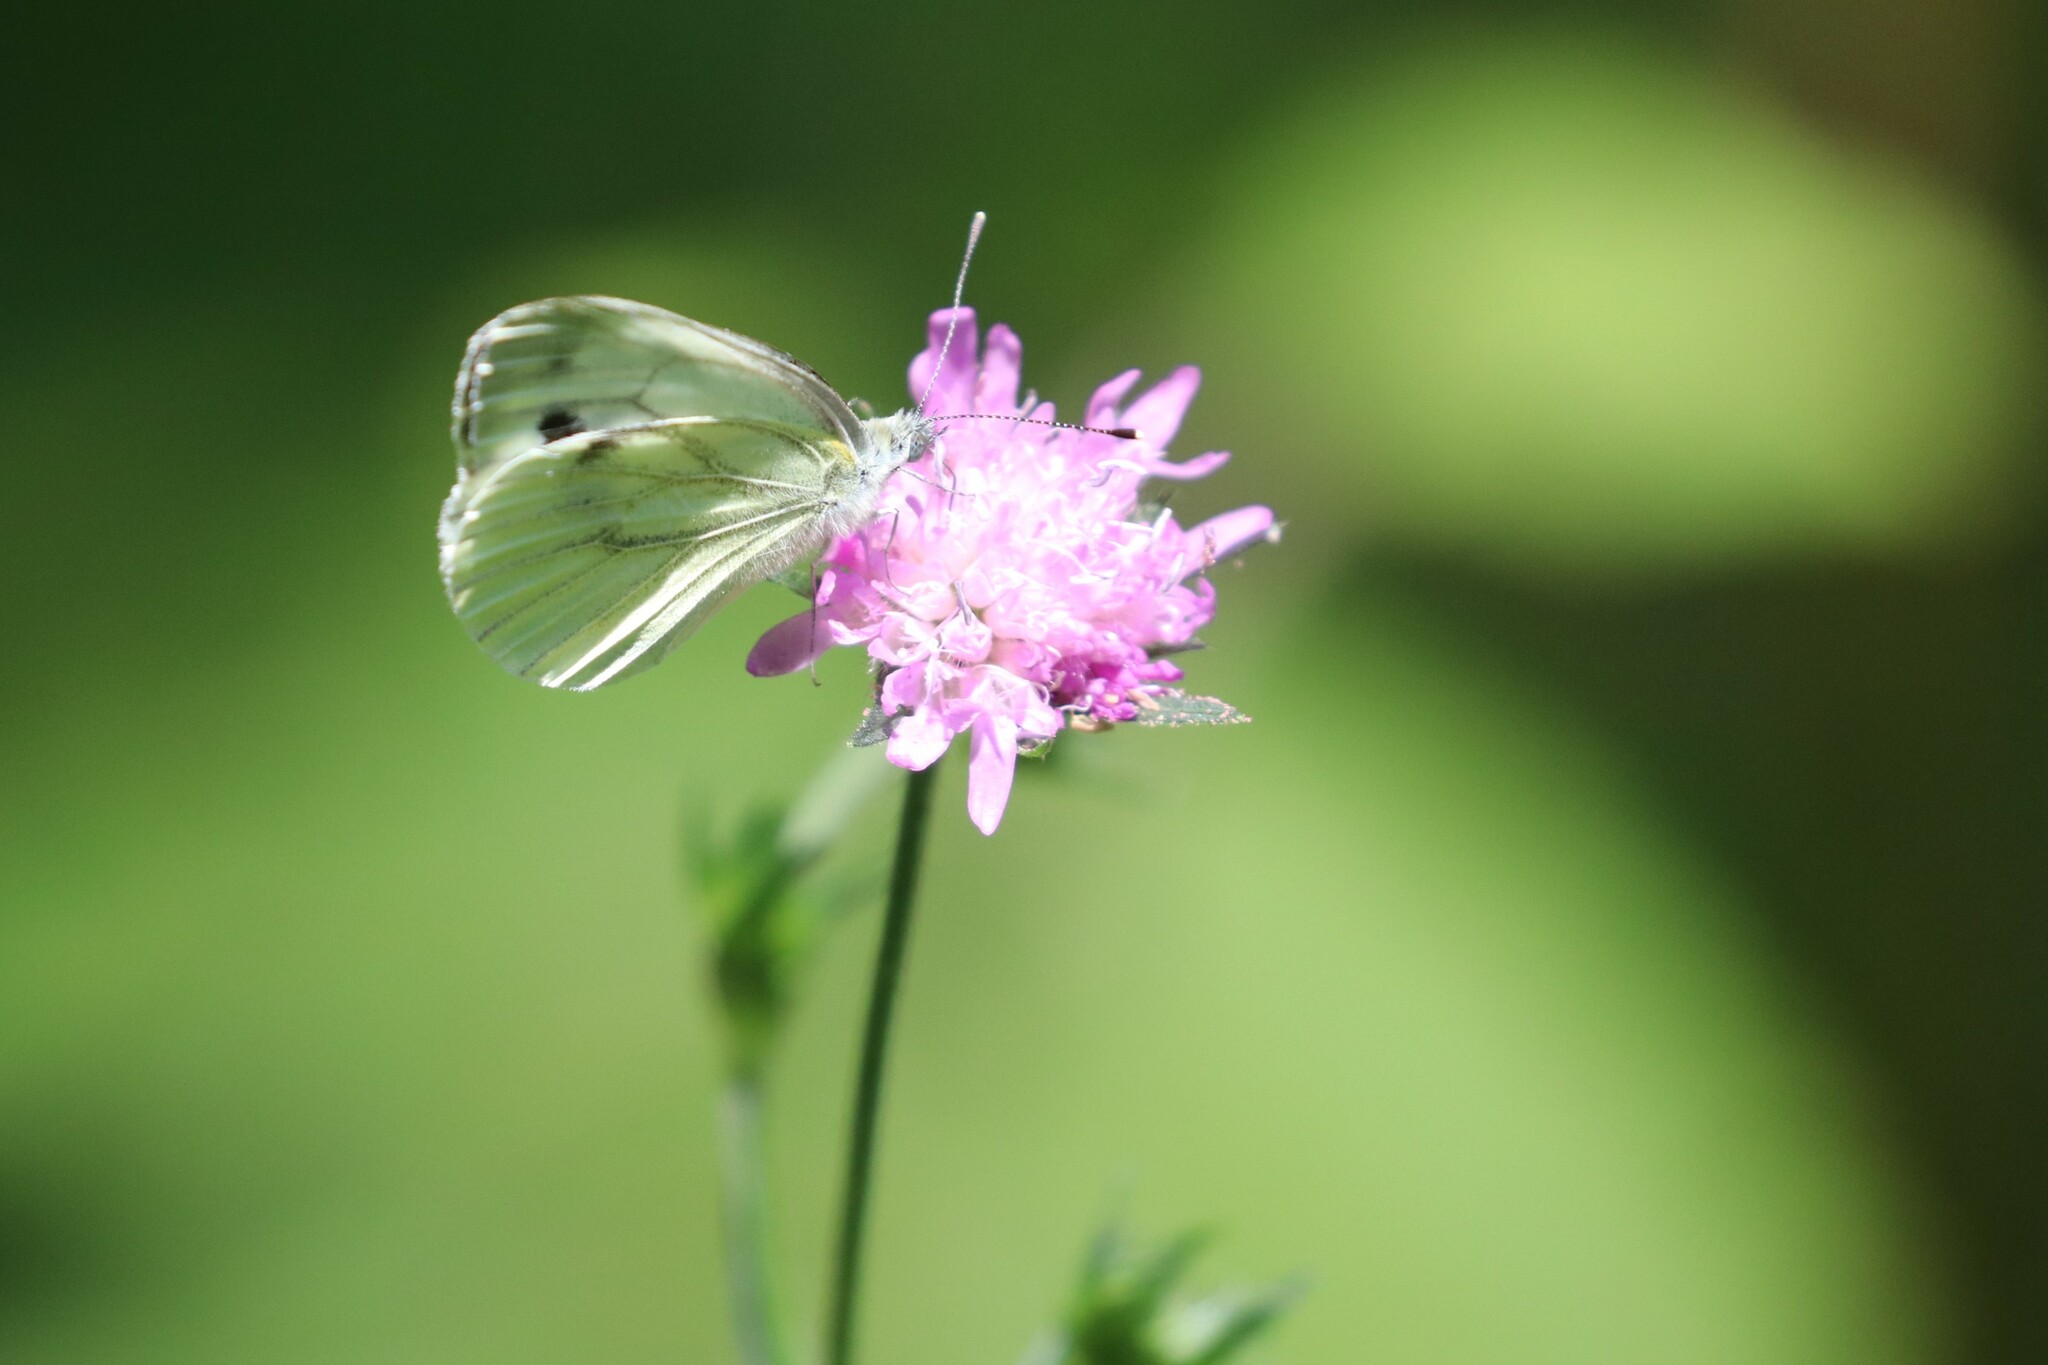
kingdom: Animalia
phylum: Arthropoda
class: Insecta
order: Lepidoptera
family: Pieridae
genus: Pieris
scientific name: Pieris napi
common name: Green-veined white
